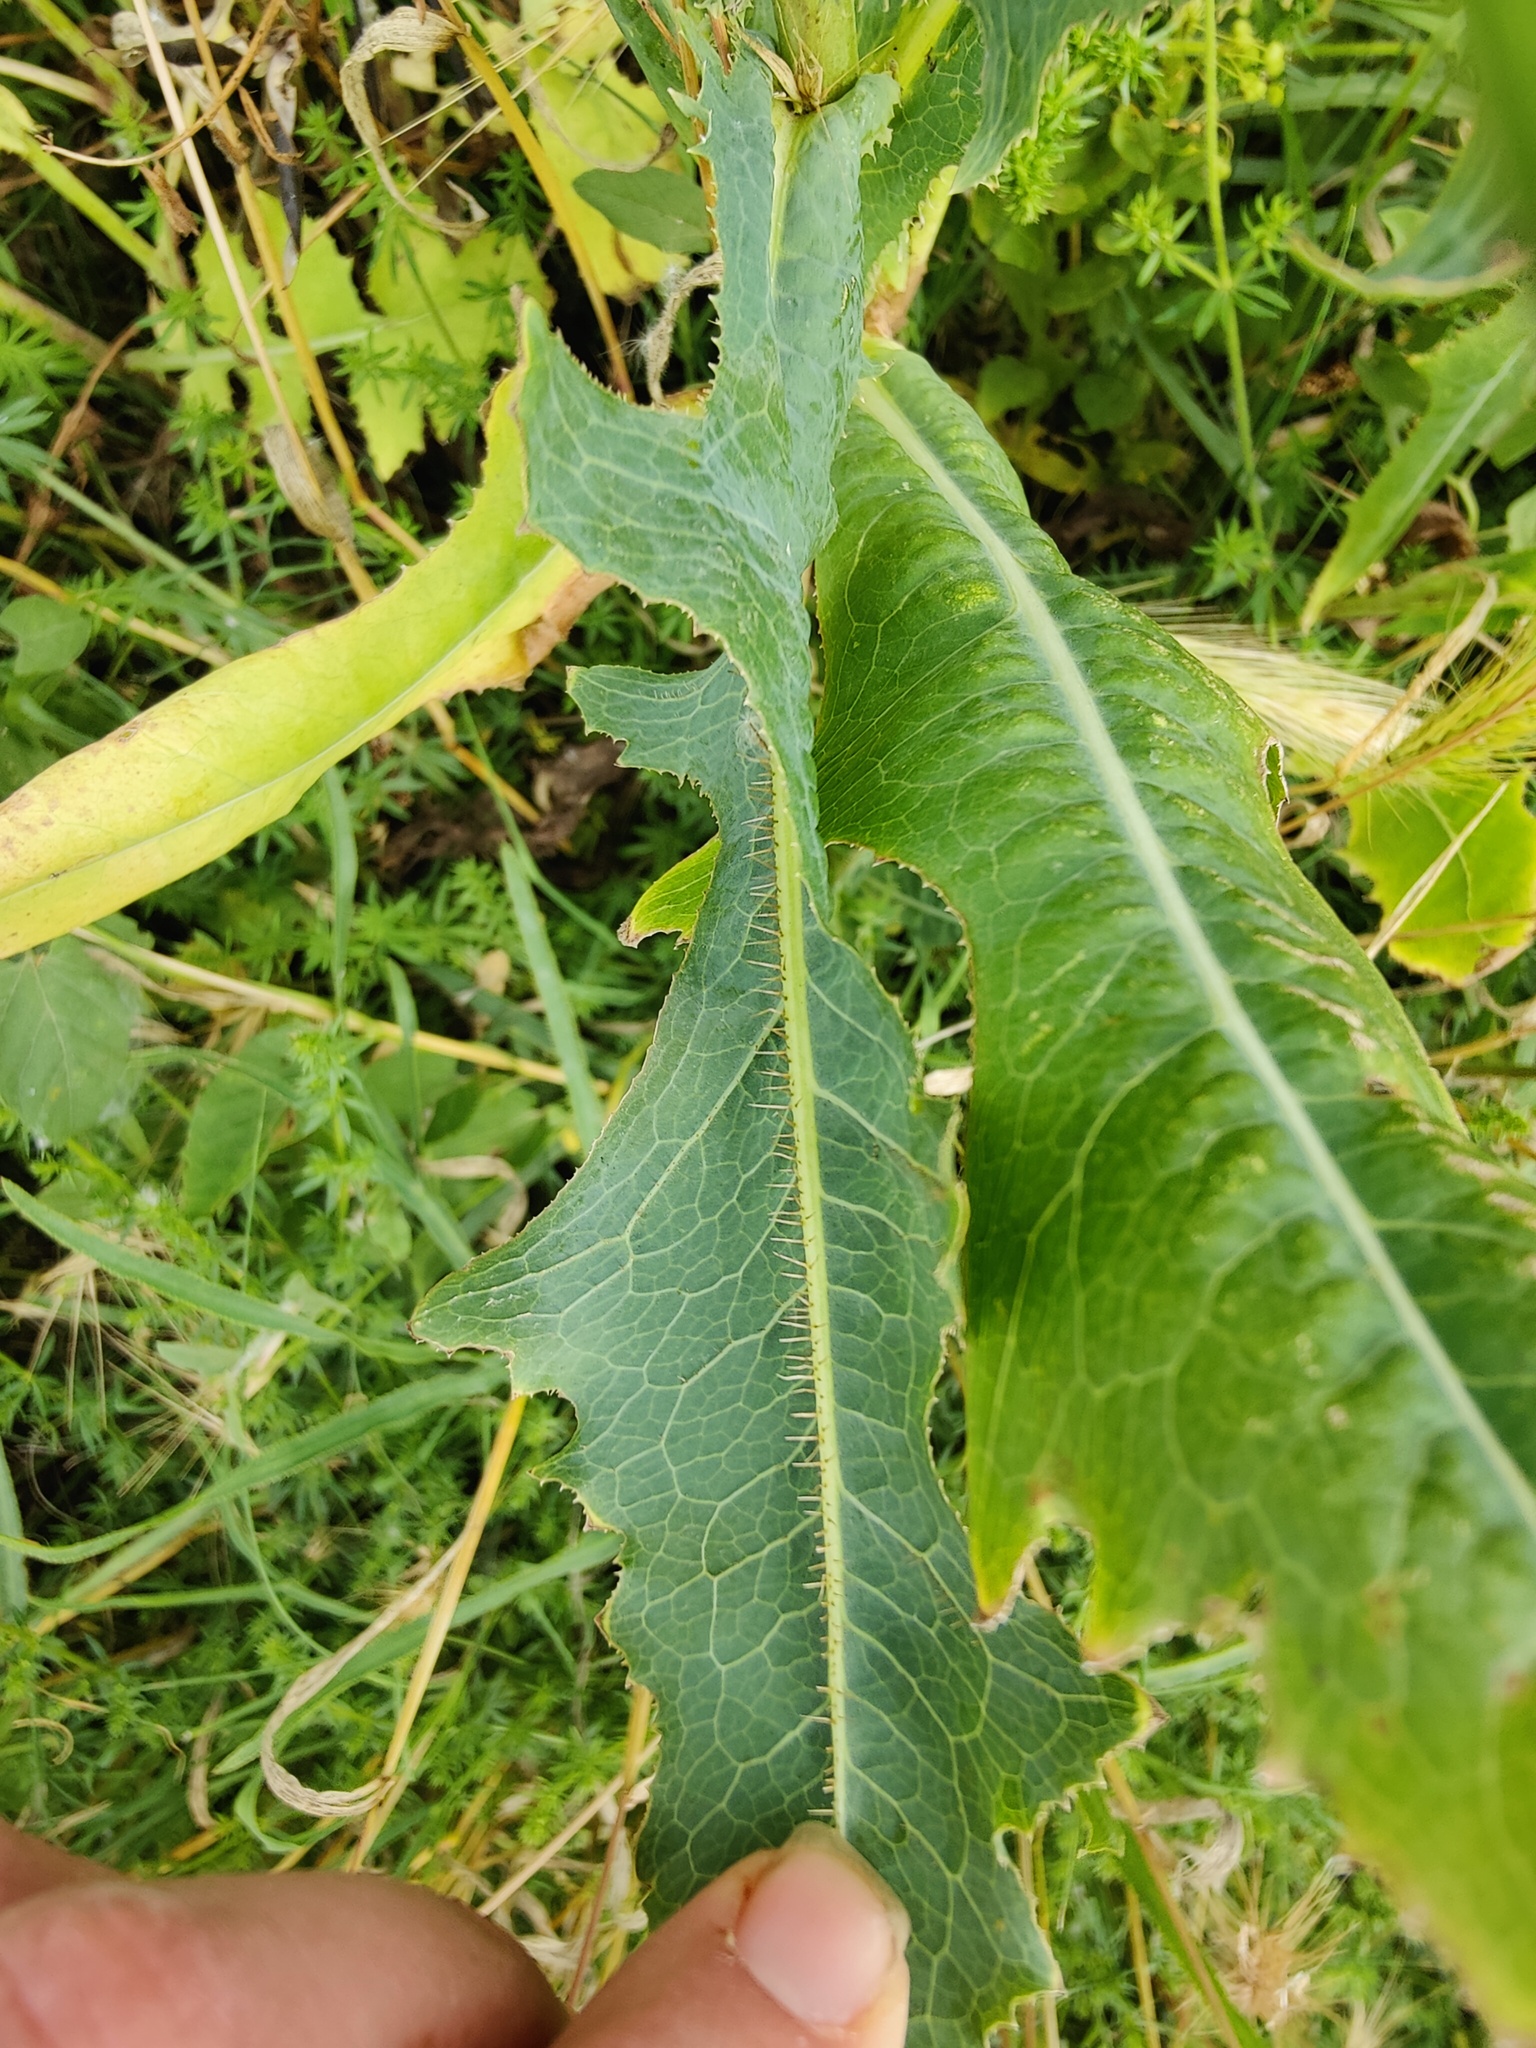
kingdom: Plantae
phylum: Tracheophyta
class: Magnoliopsida
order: Asterales
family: Asteraceae
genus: Lactuca
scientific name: Lactuca serriola
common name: Prickly lettuce
